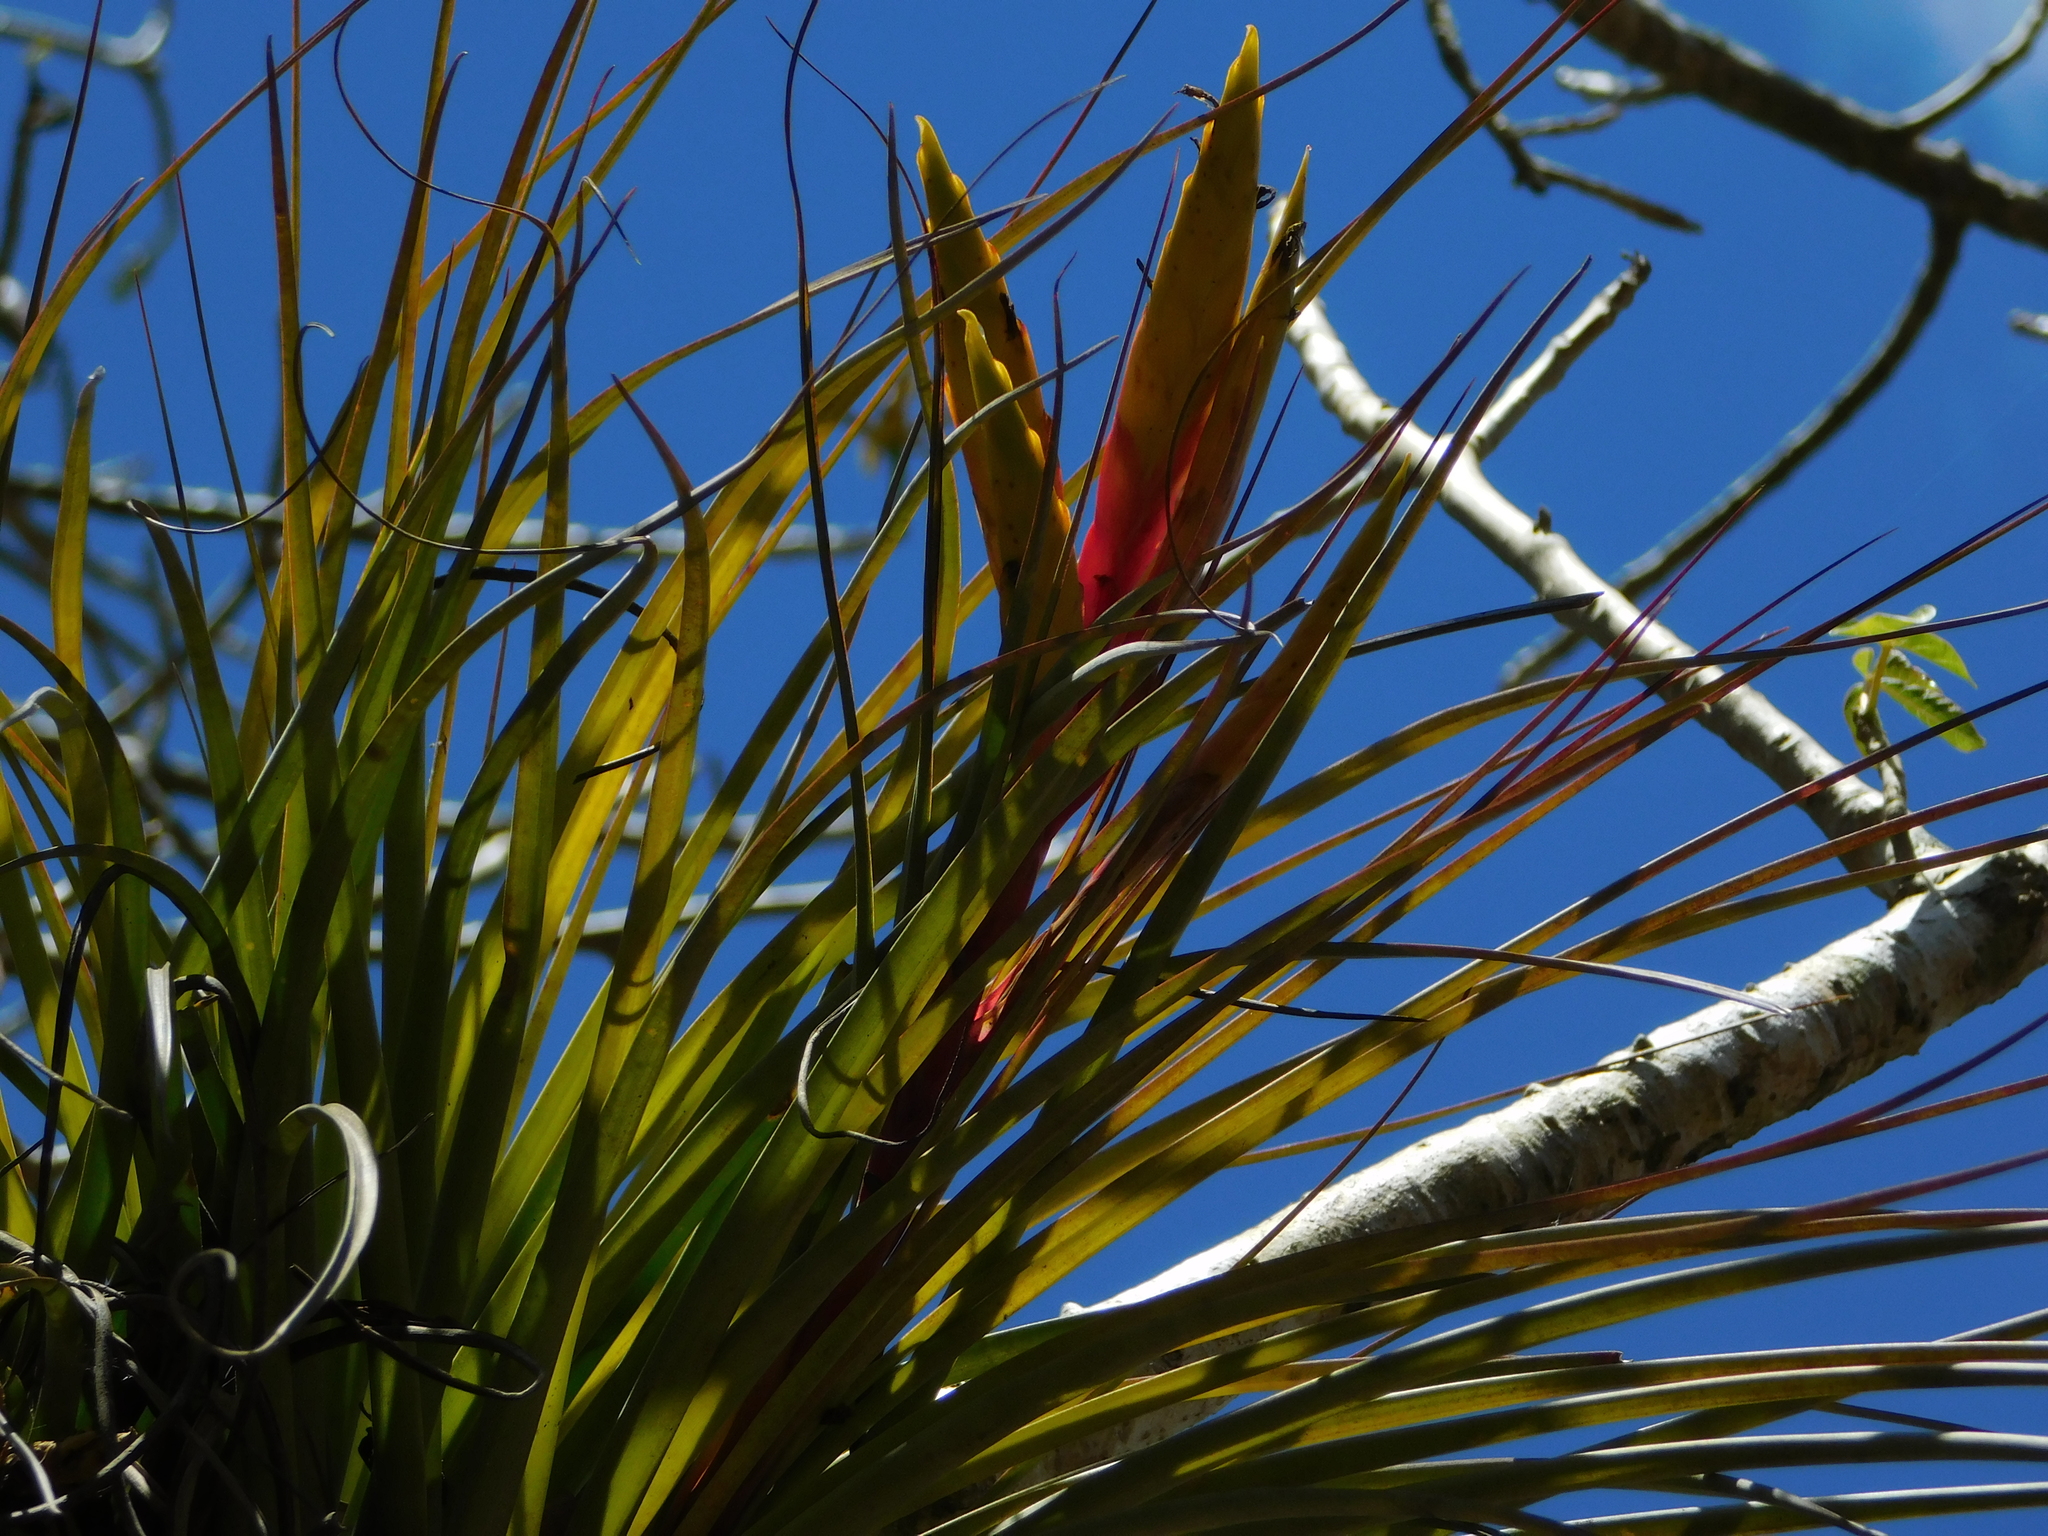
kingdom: Plantae
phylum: Tracheophyta
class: Liliopsida
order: Poales
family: Bromeliaceae
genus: Tillandsia
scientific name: Tillandsia fasciculata
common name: Giant airplant
